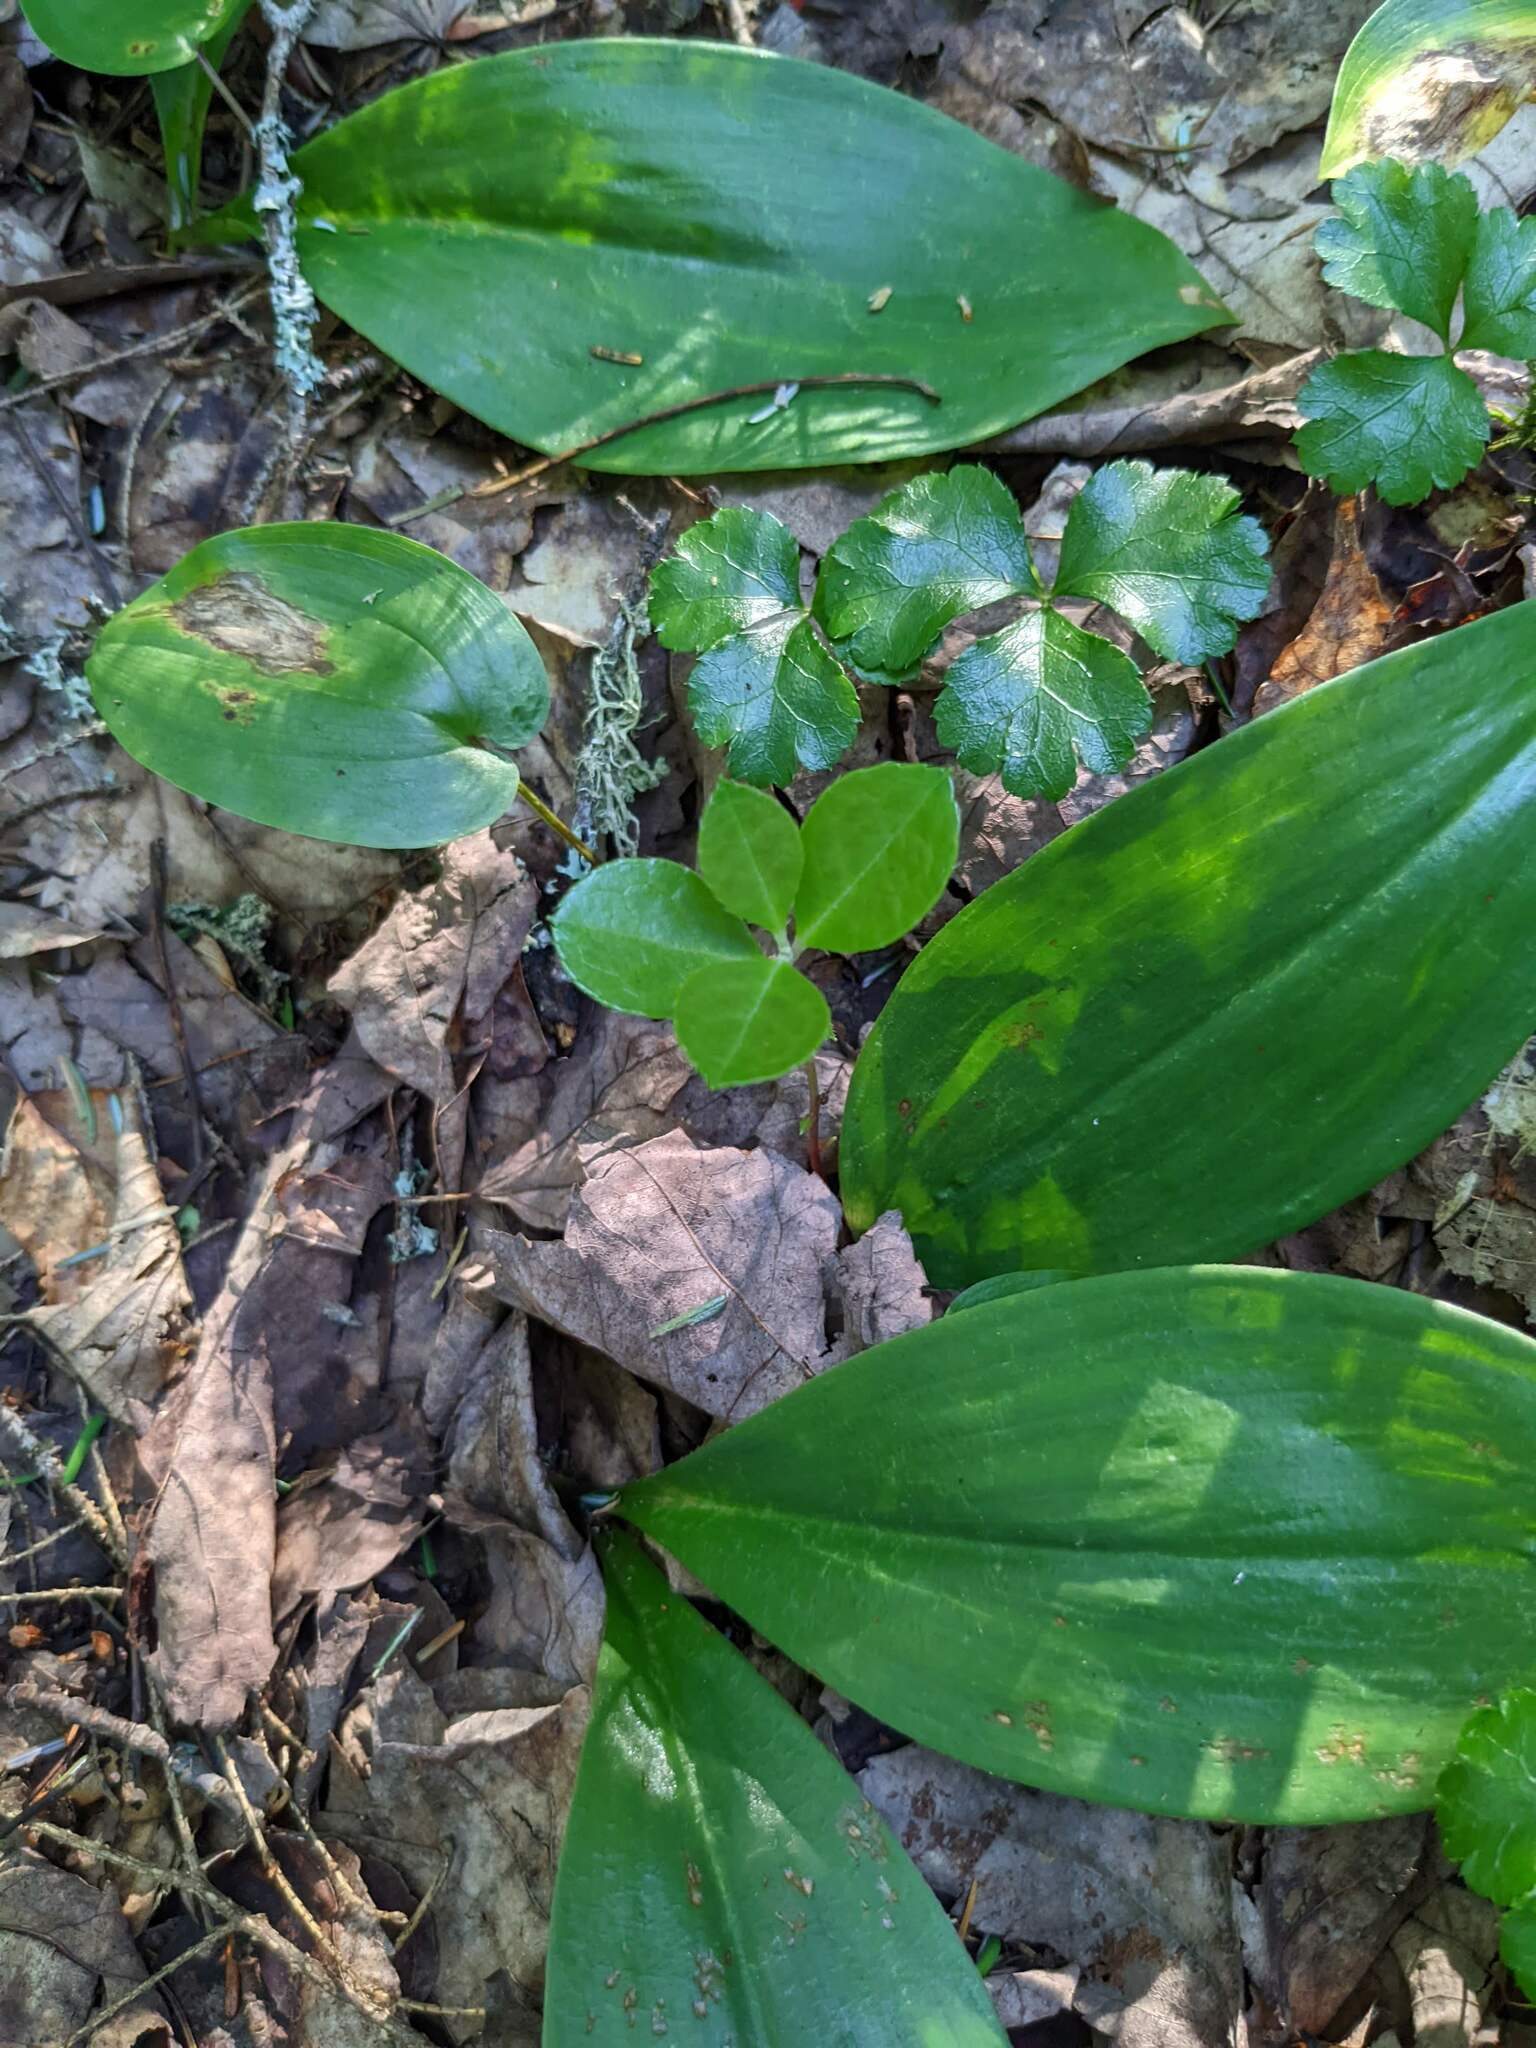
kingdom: Plantae
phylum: Tracheophyta
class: Magnoliopsida
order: Ericales
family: Ericaceae
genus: Gaultheria
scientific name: Gaultheria procumbens
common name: Checkerberry
